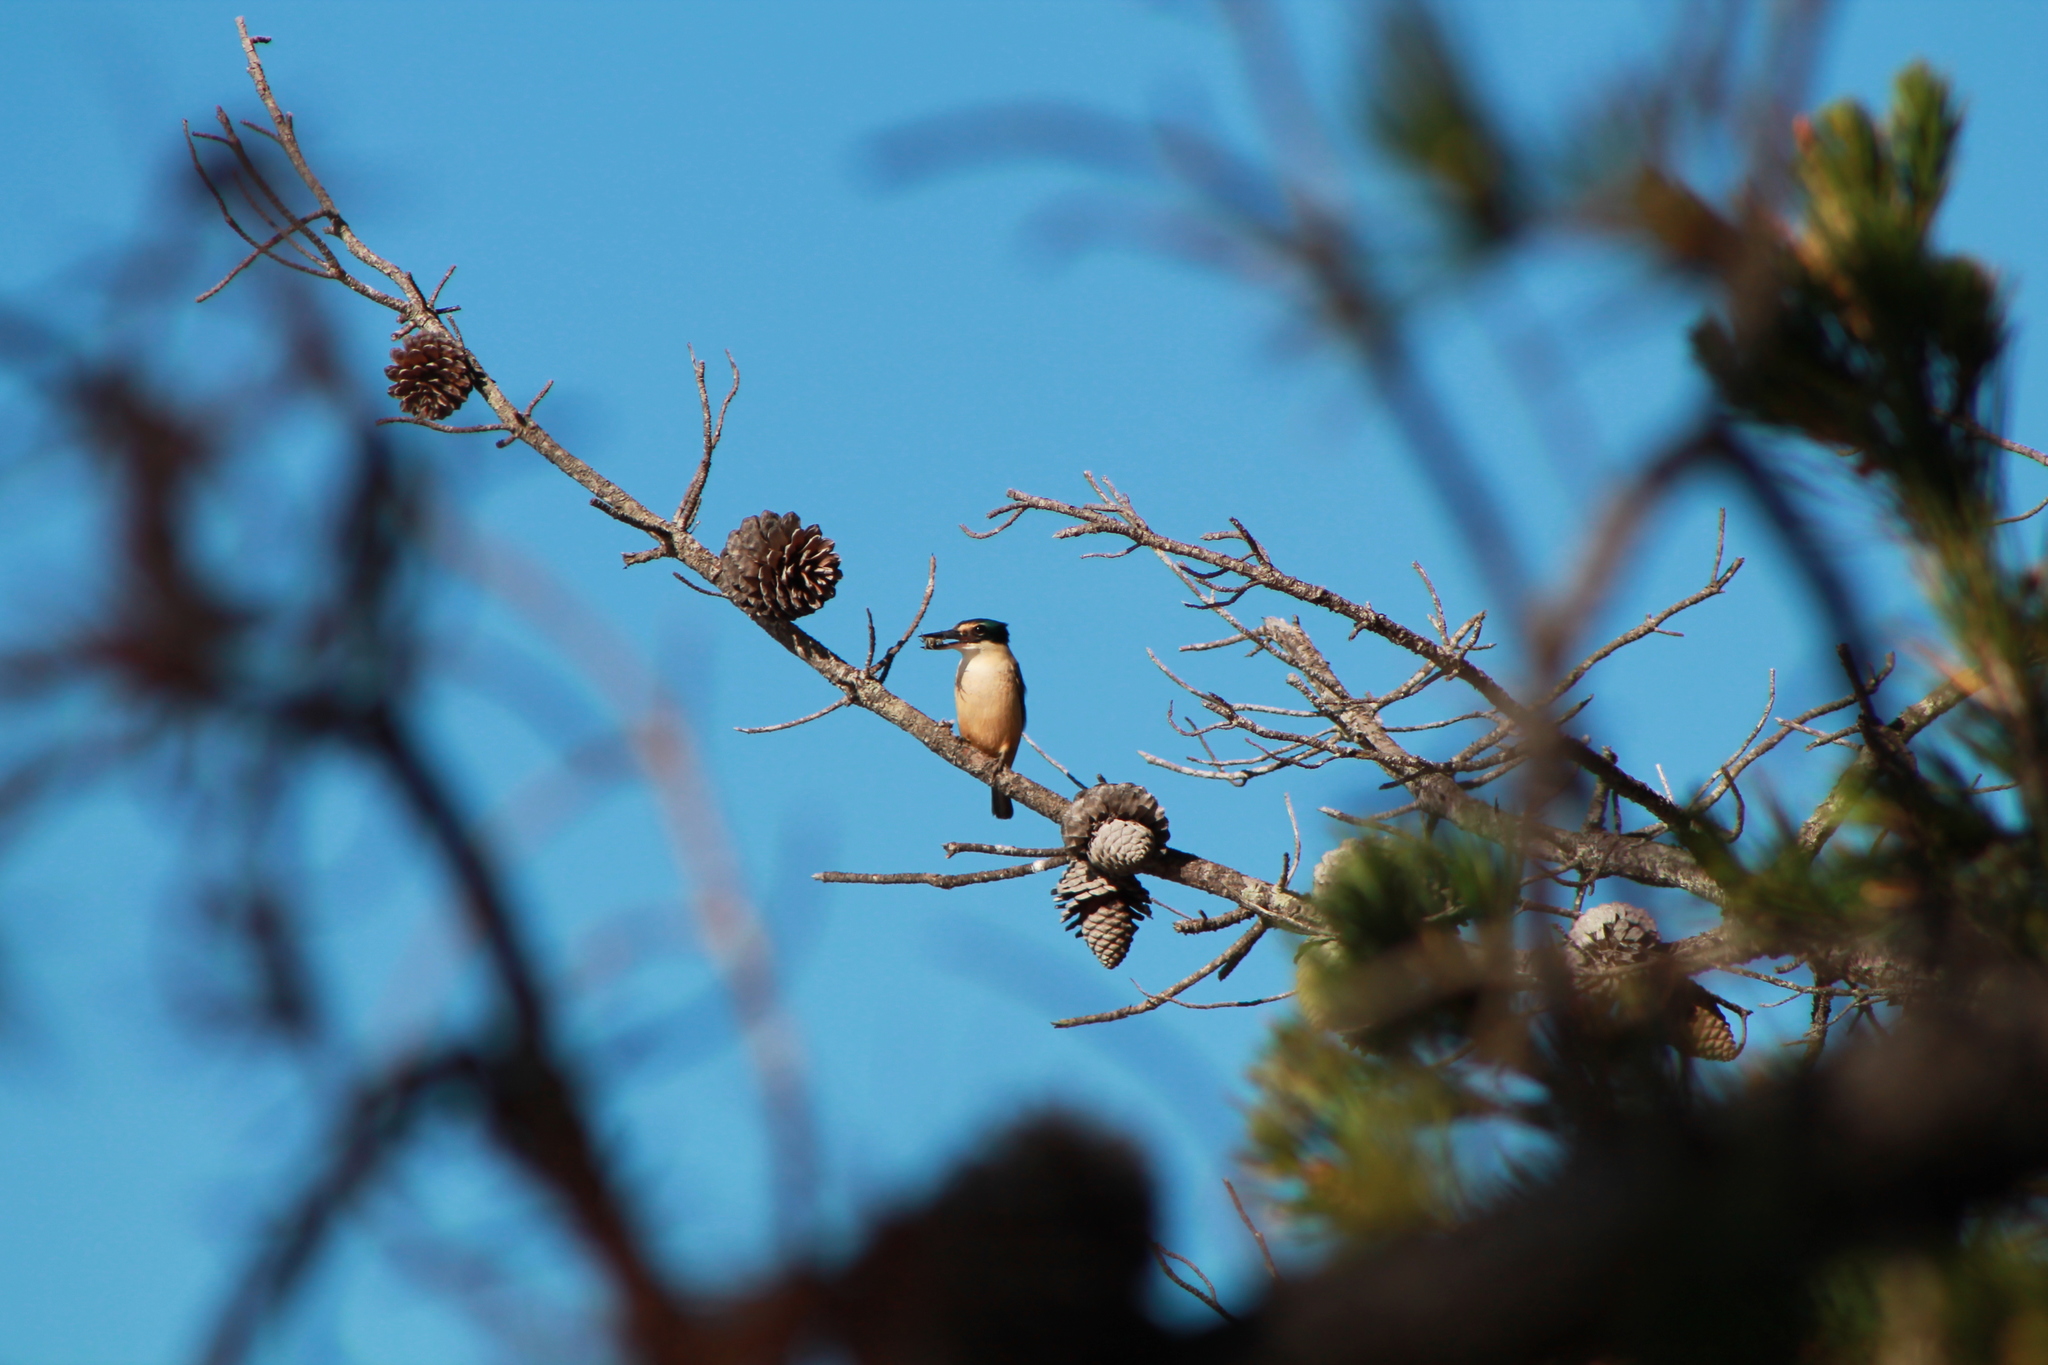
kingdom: Animalia
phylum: Chordata
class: Aves
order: Coraciiformes
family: Alcedinidae
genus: Todiramphus
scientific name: Todiramphus sanctus
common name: Sacred kingfisher
